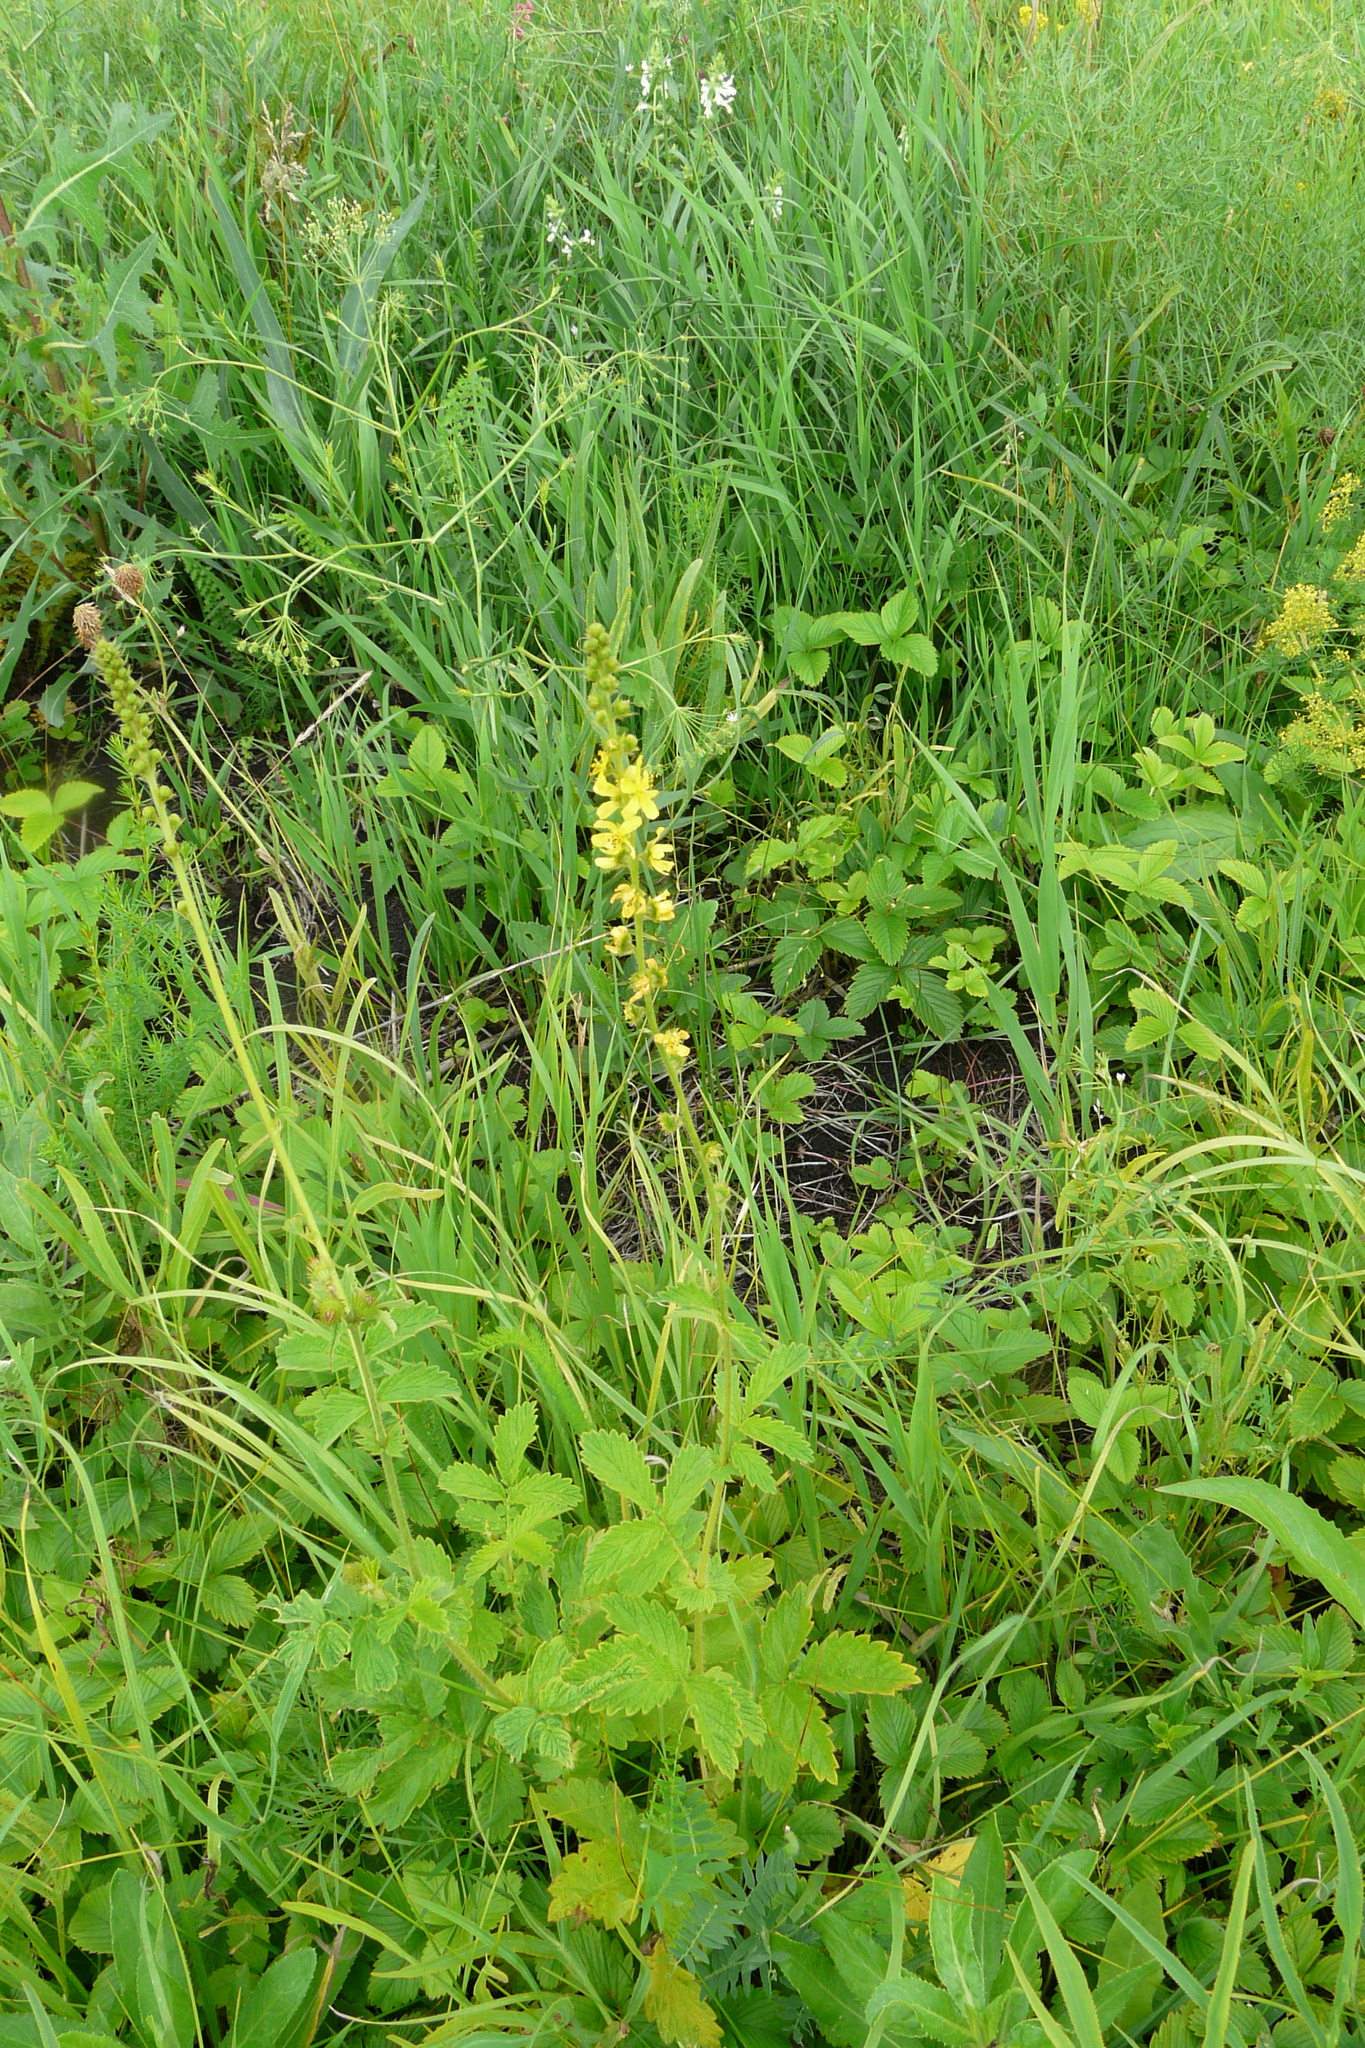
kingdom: Plantae
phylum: Tracheophyta
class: Magnoliopsida
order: Rosales
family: Rosaceae
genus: Agrimonia
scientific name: Agrimonia eupatoria
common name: Agrimony
